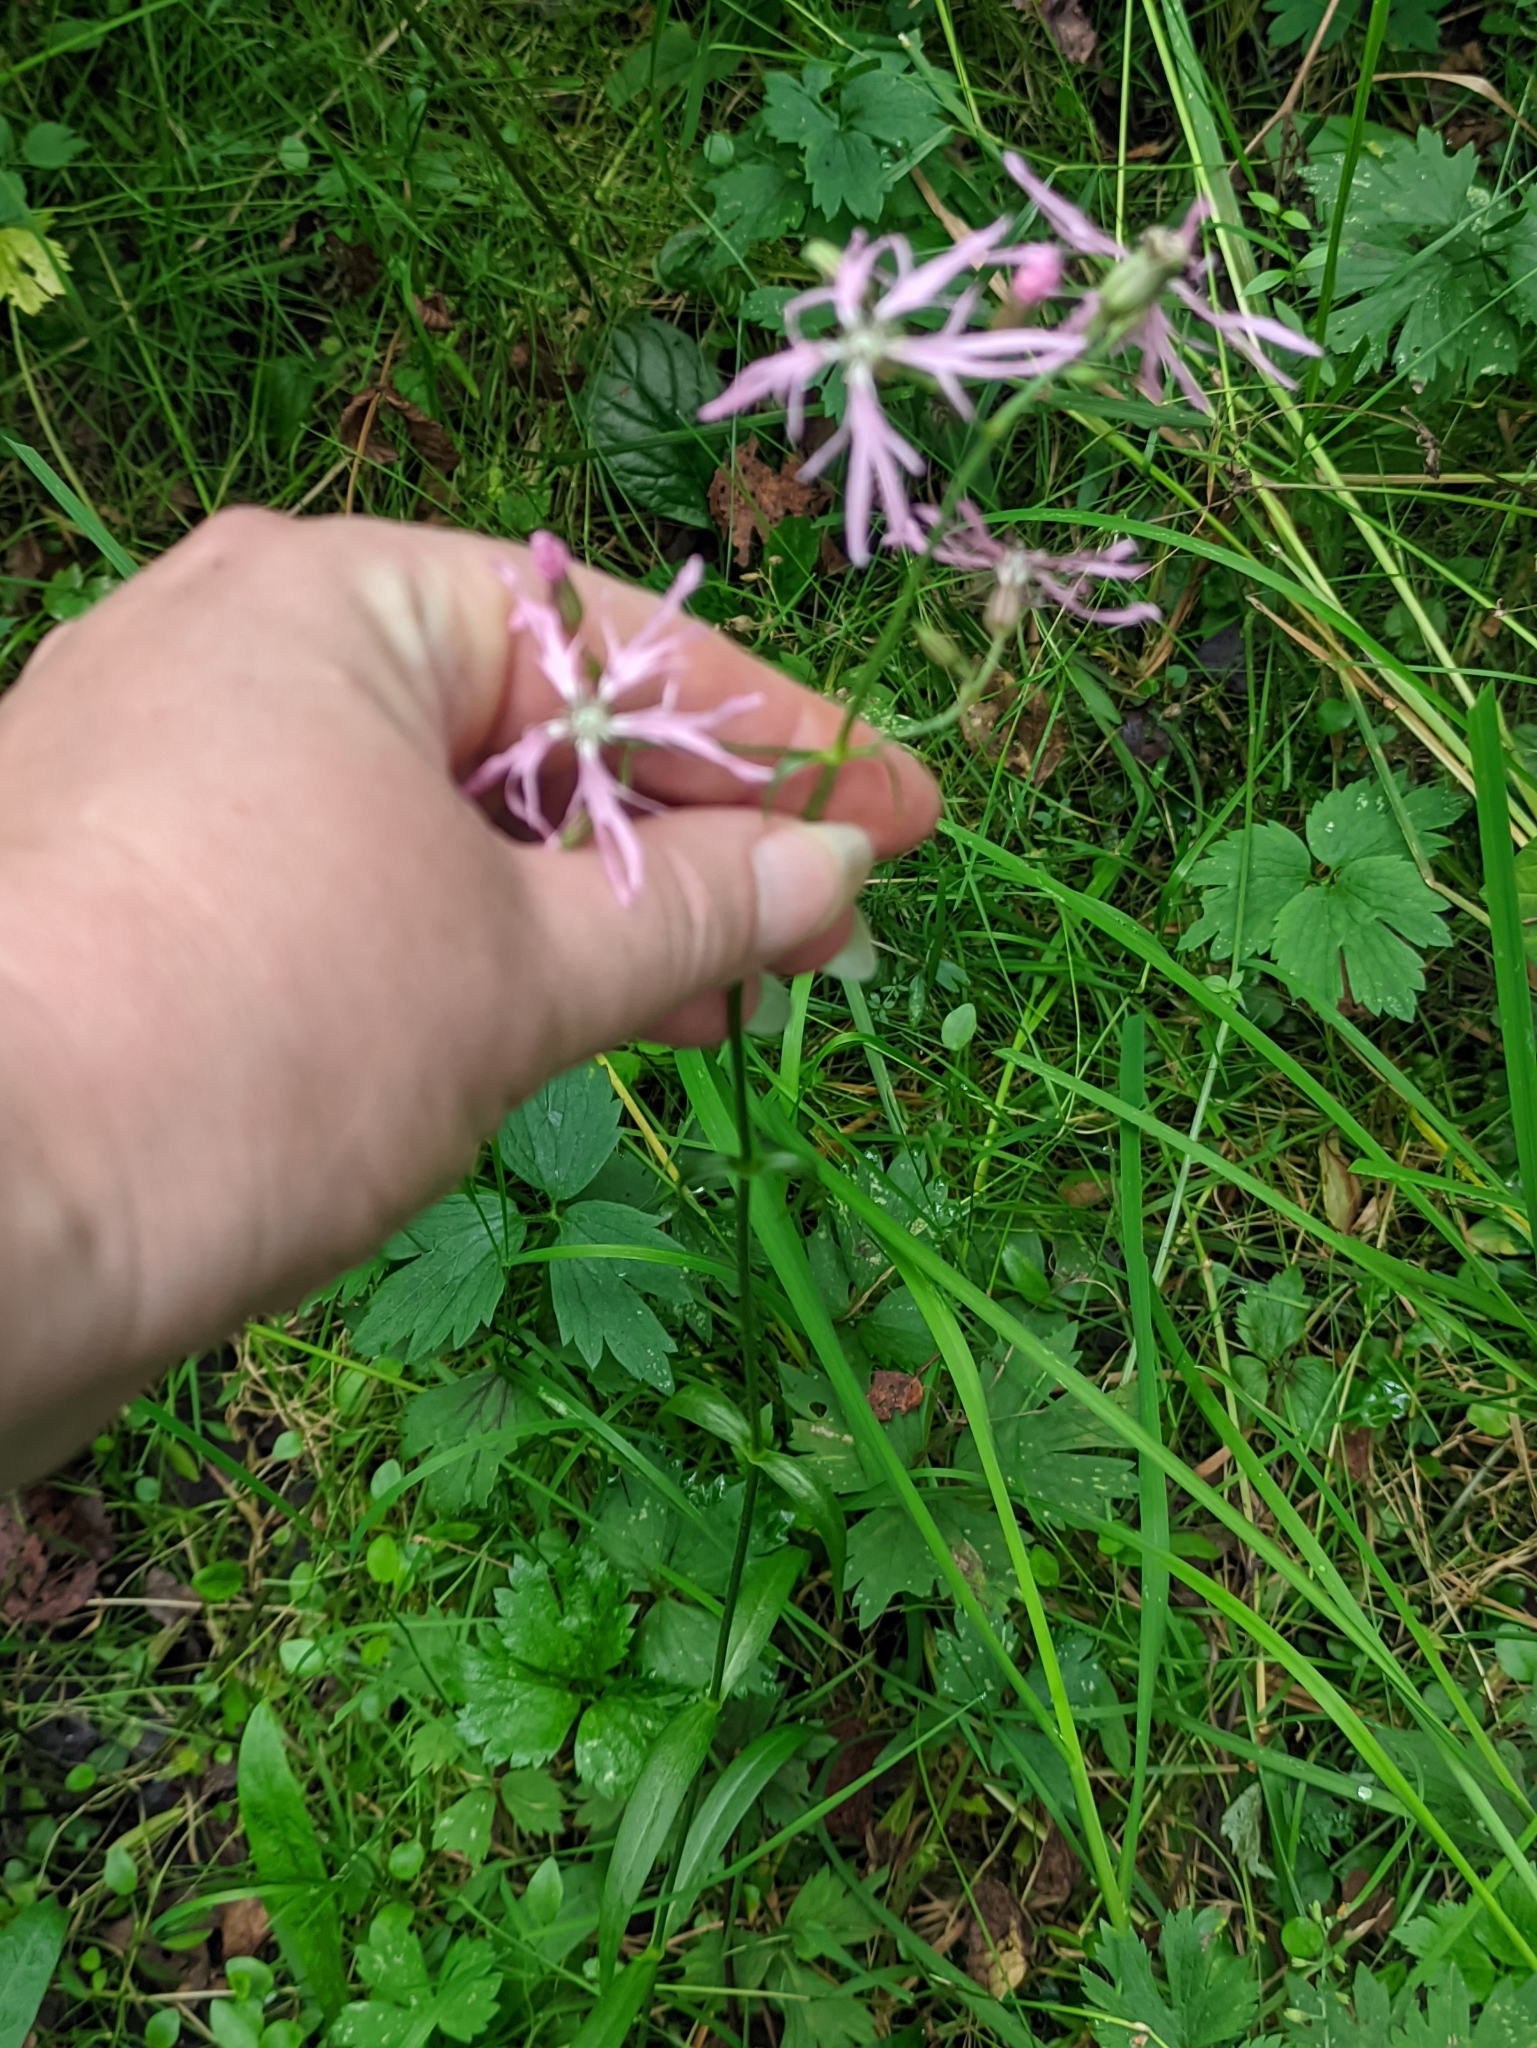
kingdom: Plantae
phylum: Tracheophyta
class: Magnoliopsida
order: Caryophyllales
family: Caryophyllaceae
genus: Silene
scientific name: Silene flos-cuculi
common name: Ragged-robin
